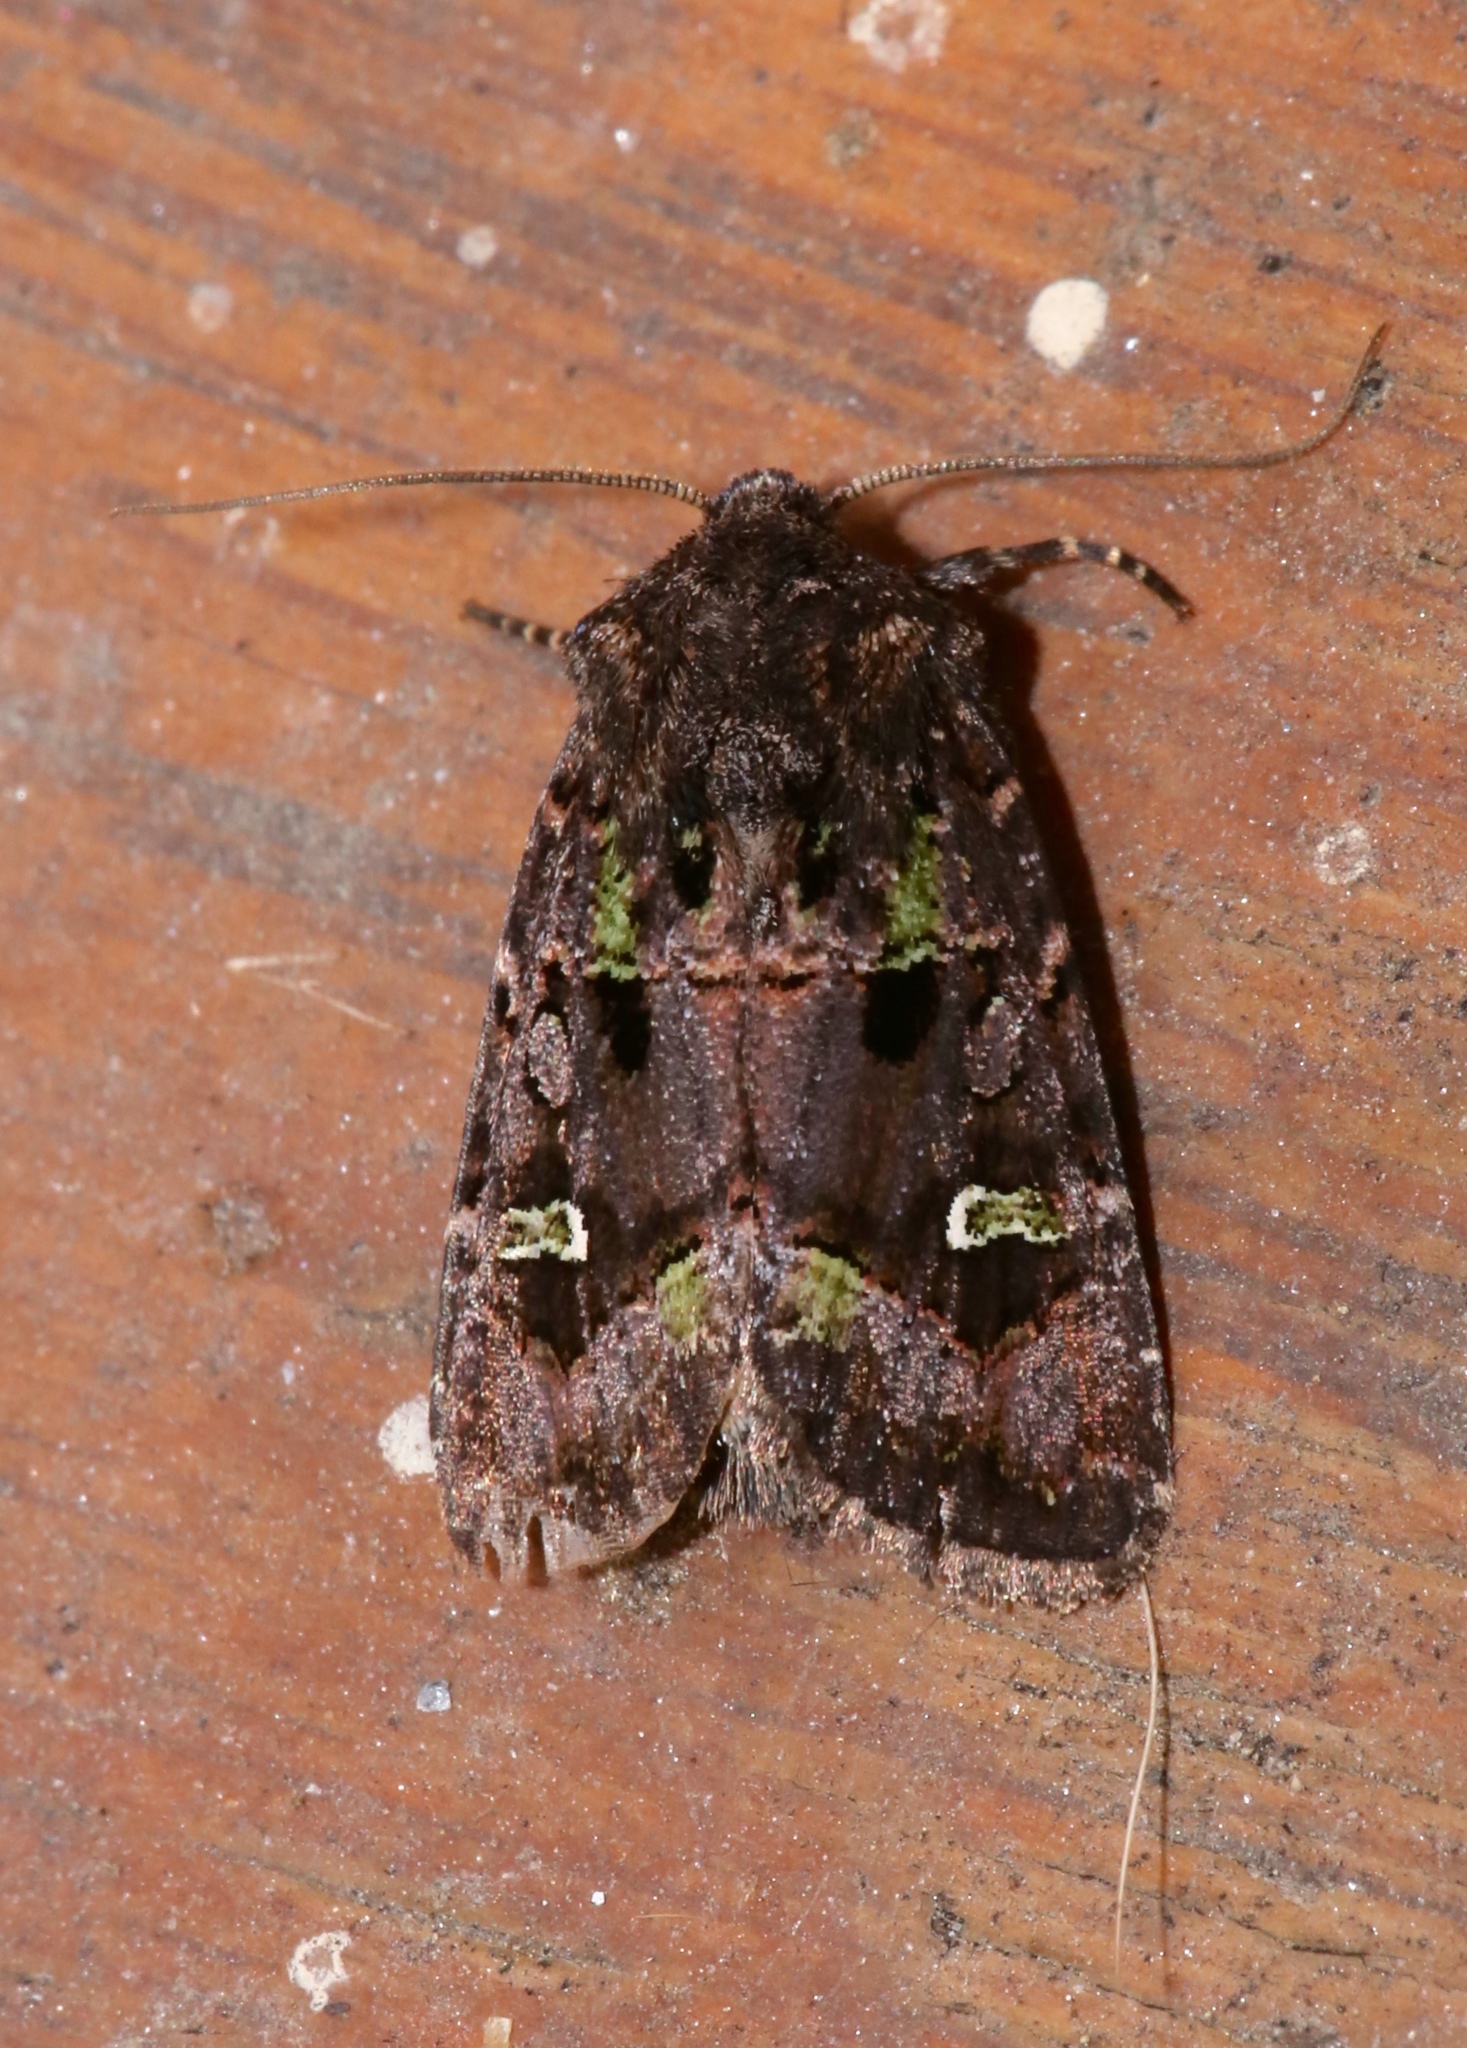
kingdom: Animalia
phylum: Arthropoda
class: Insecta
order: Lepidoptera
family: Noctuidae
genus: Lacinipolia
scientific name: Lacinipolia renigera
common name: Kidney-spotted minor
